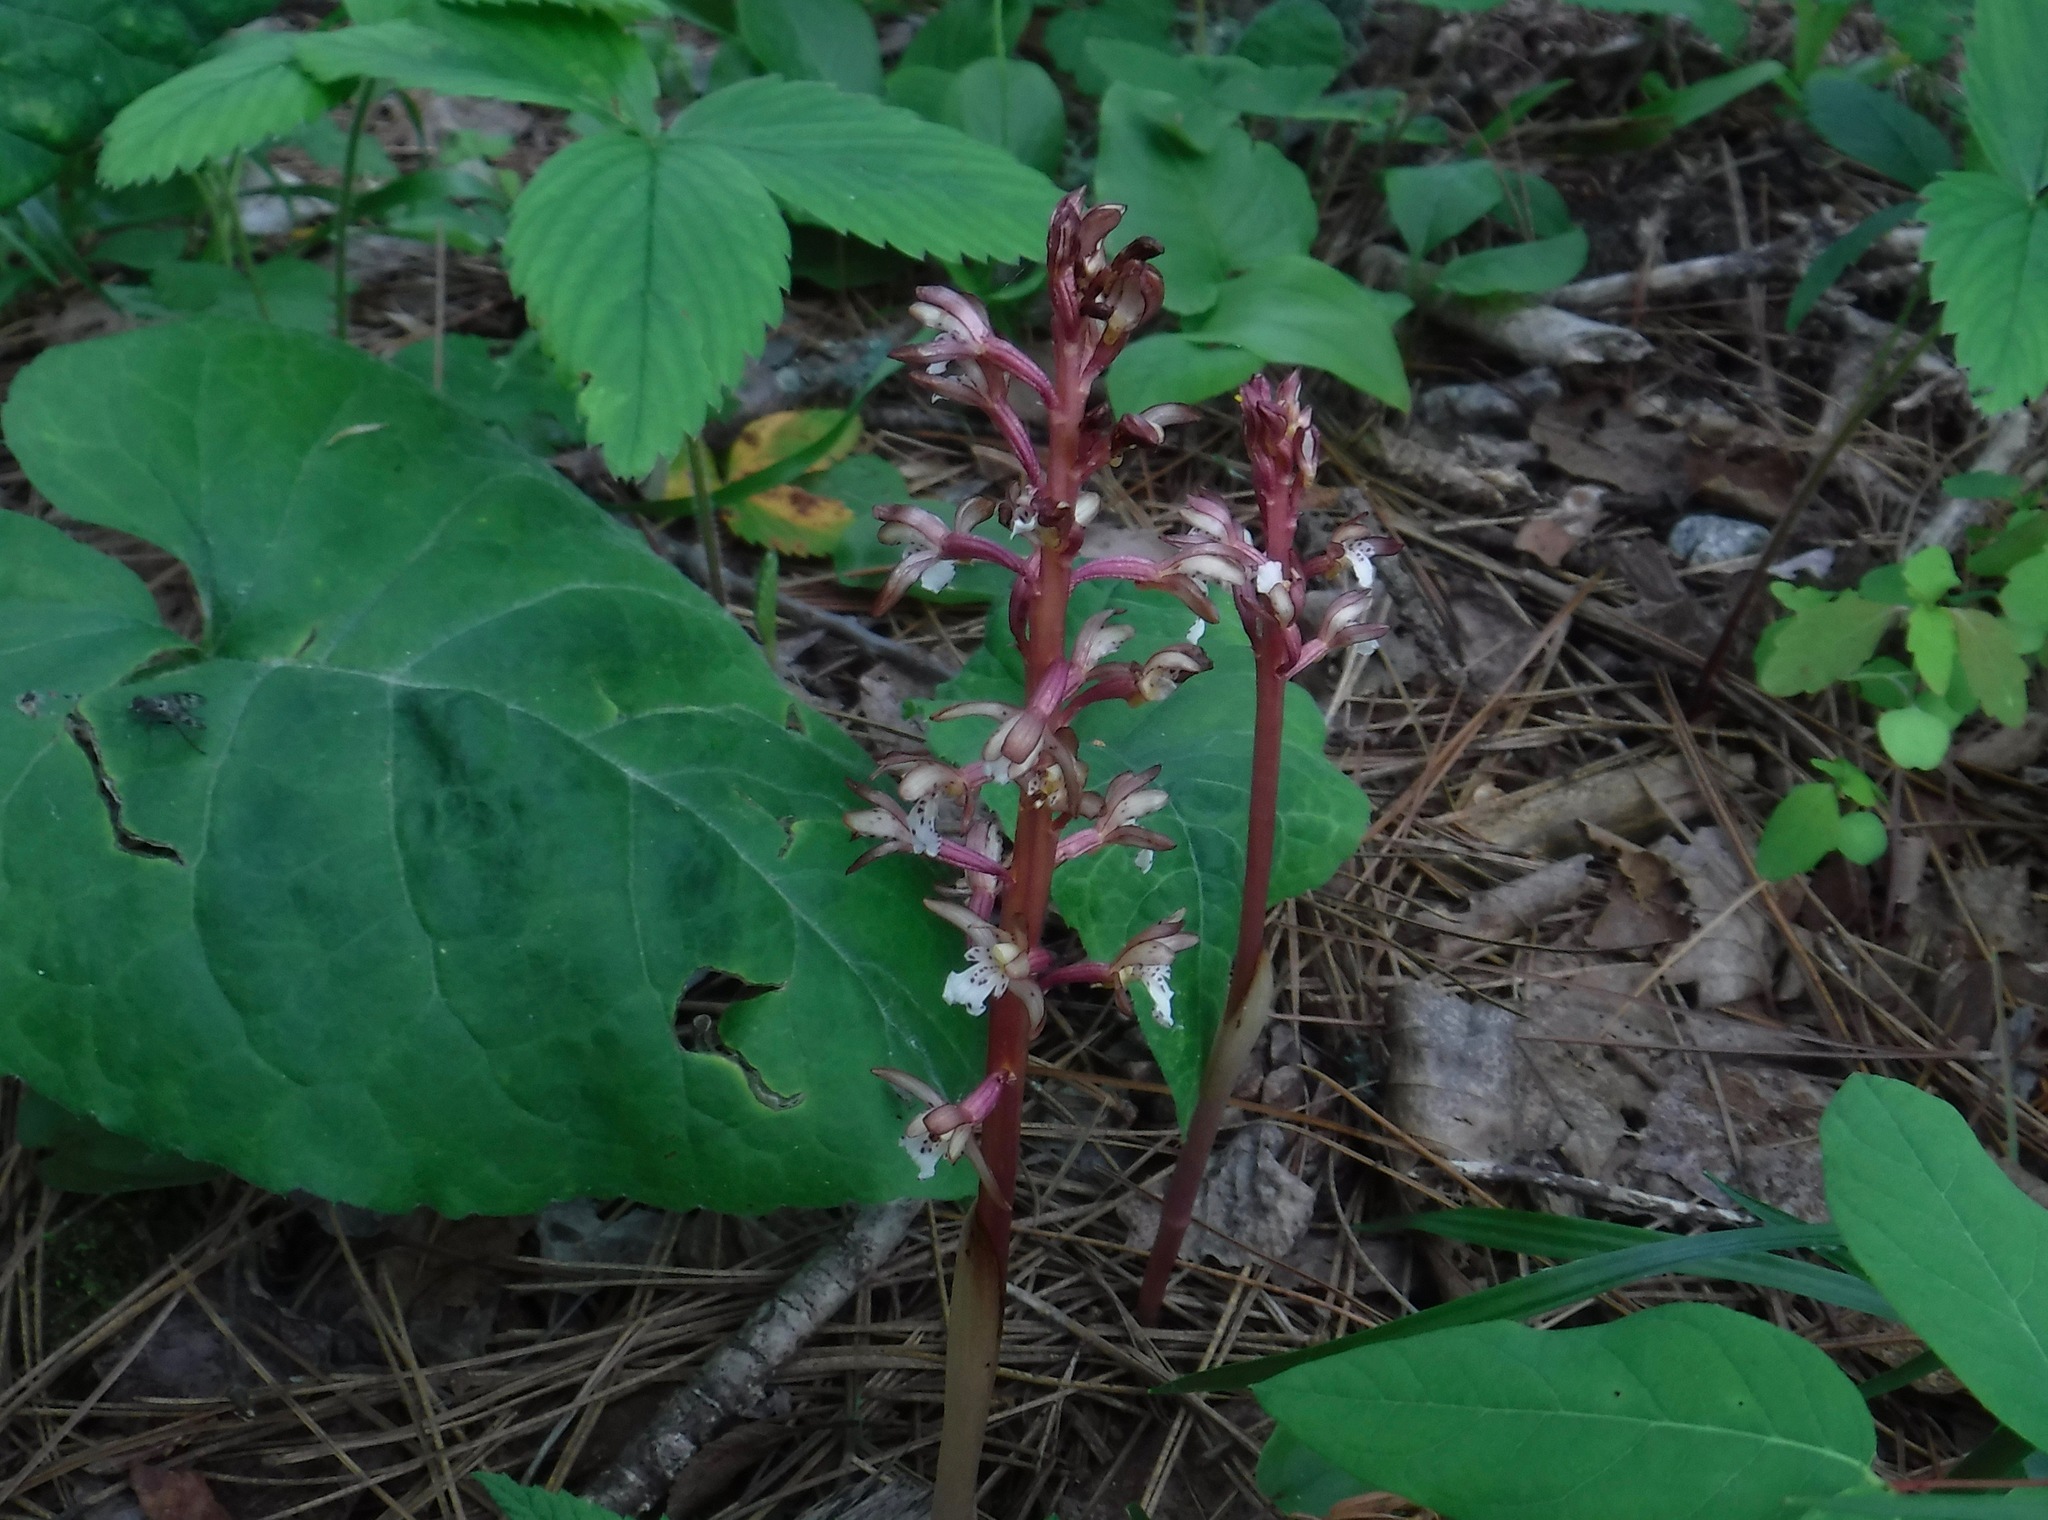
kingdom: Plantae
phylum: Tracheophyta
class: Liliopsida
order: Asparagales
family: Orchidaceae
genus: Corallorhiza
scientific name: Corallorhiza maculata
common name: Spotted coralroot
